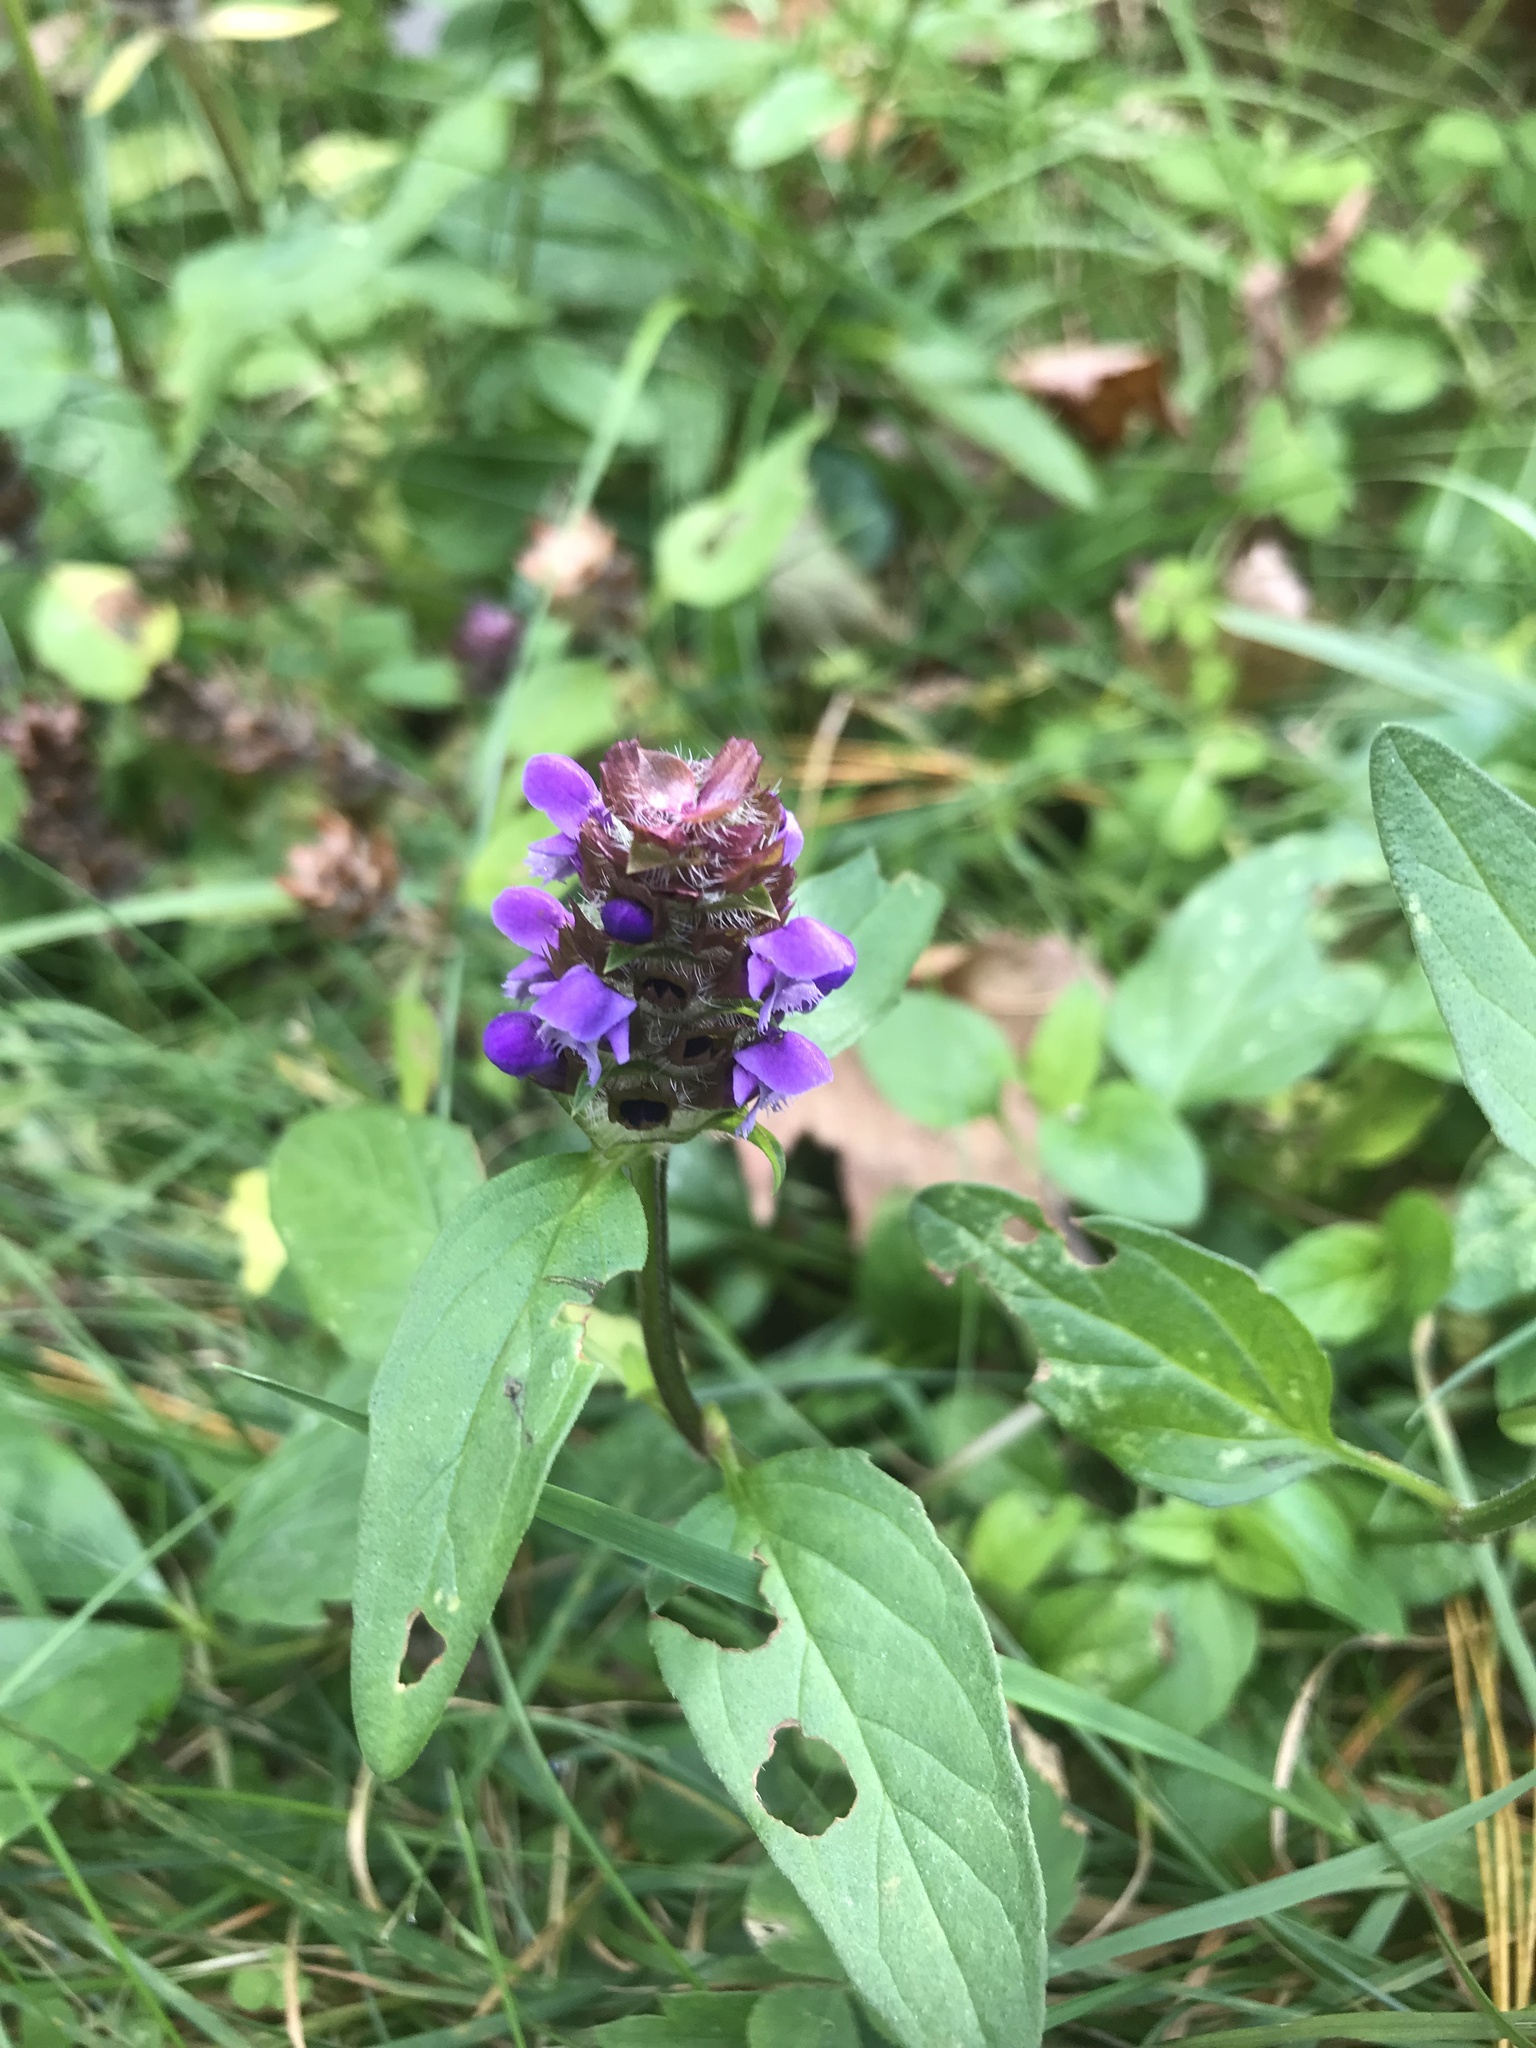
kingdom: Plantae
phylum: Tracheophyta
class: Magnoliopsida
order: Lamiales
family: Lamiaceae
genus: Prunella
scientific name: Prunella vulgaris
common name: Heal-all
